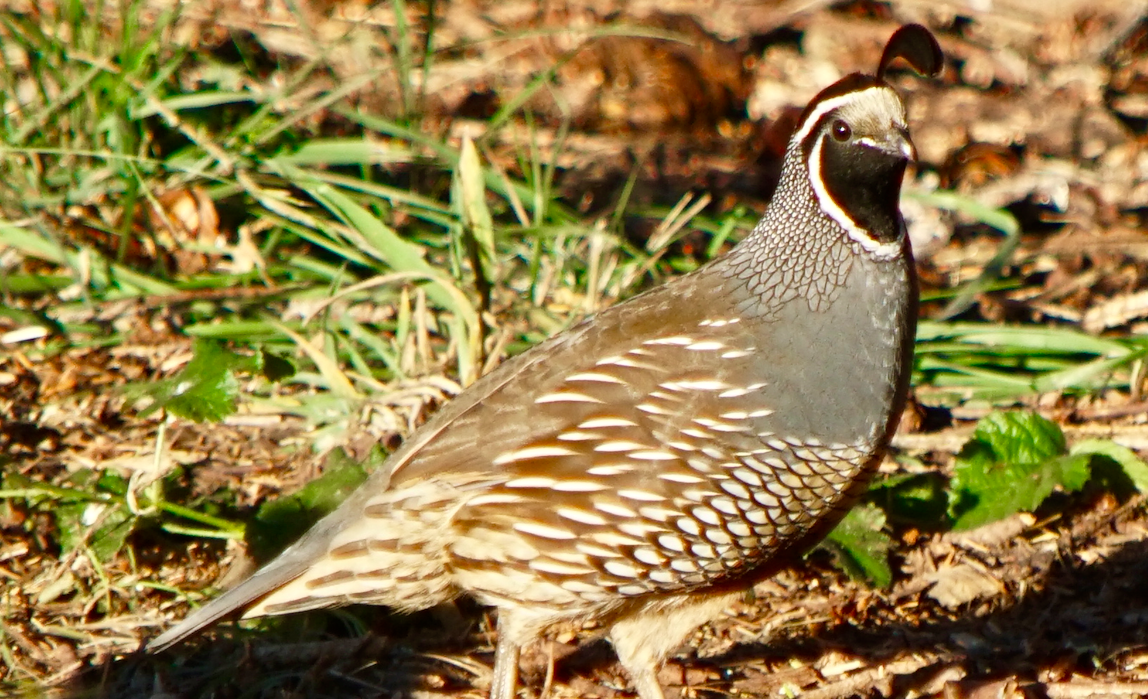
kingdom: Animalia
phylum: Chordata
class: Aves
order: Galliformes
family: Odontophoridae
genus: Callipepla
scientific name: Callipepla californica
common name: California quail
